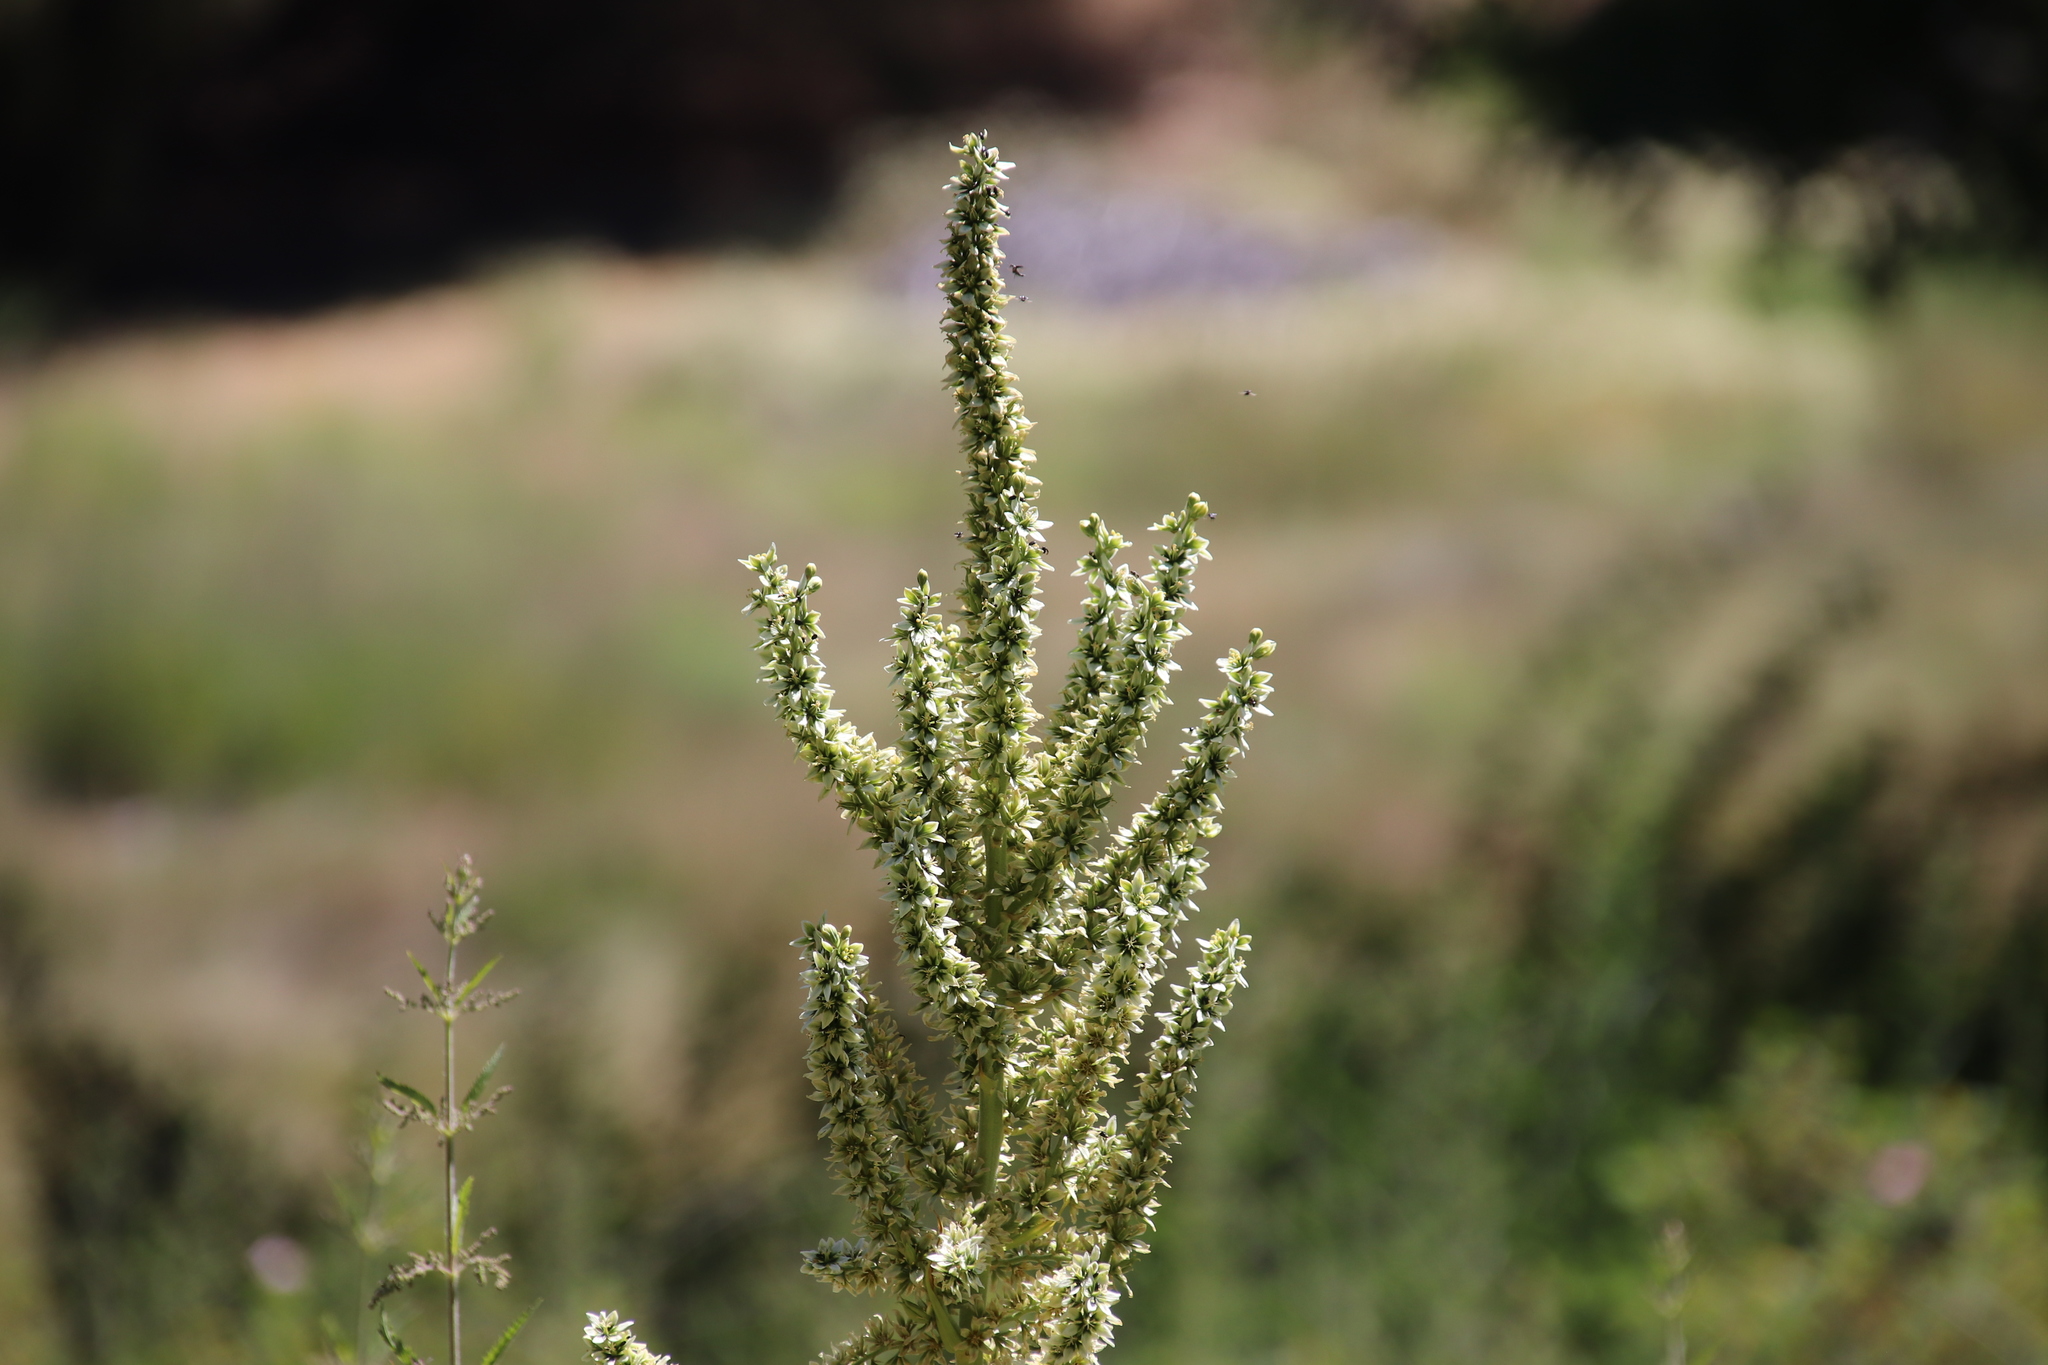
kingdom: Plantae
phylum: Tracheophyta
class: Liliopsida
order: Liliales
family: Melanthiaceae
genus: Veratrum
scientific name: Veratrum californicum
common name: California veratrum
